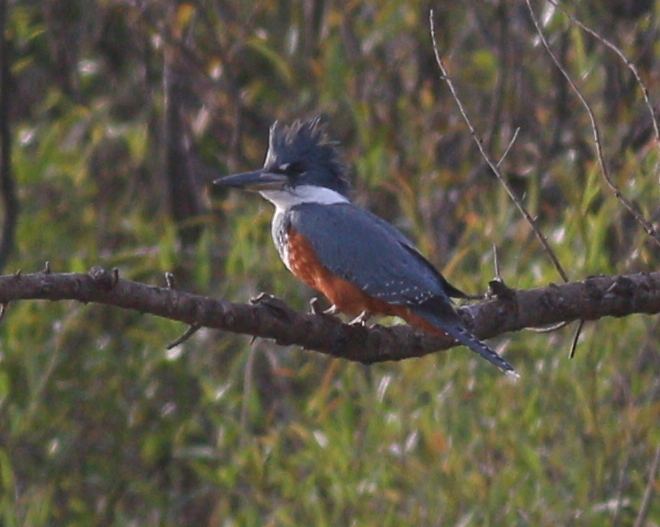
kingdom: Animalia
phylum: Chordata
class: Aves
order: Coraciiformes
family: Alcedinidae
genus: Megaceryle
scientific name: Megaceryle torquata
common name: Ringed kingfisher
